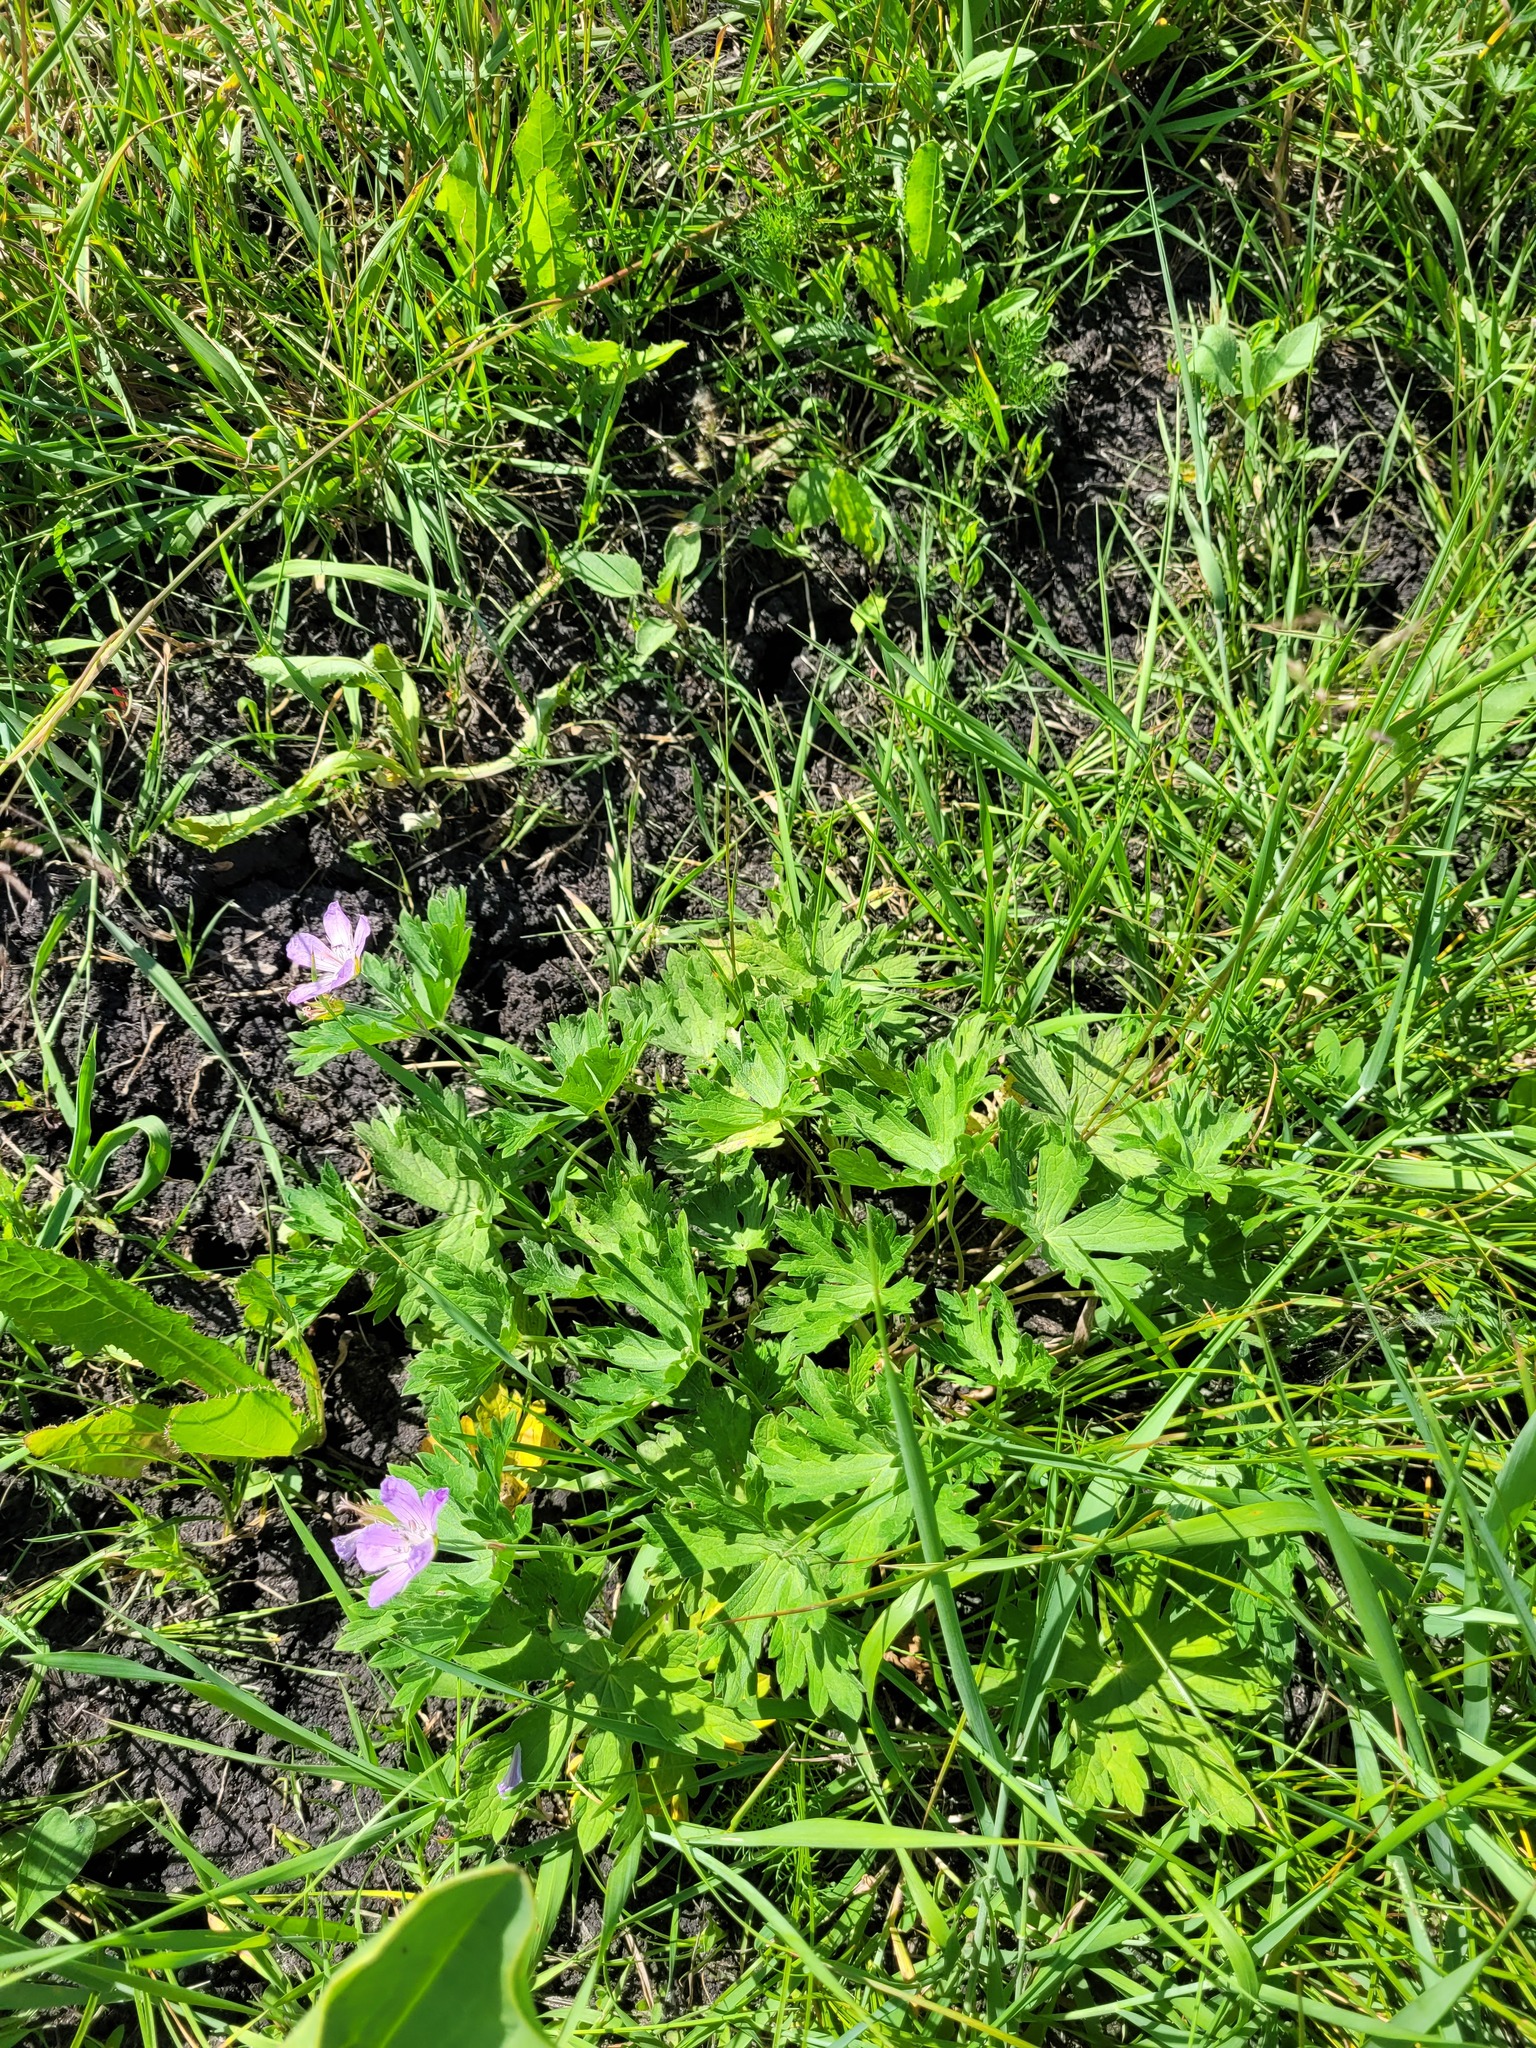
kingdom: Plantae
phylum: Tracheophyta
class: Magnoliopsida
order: Geraniales
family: Geraniaceae
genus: Geranium
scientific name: Geranium collinum
